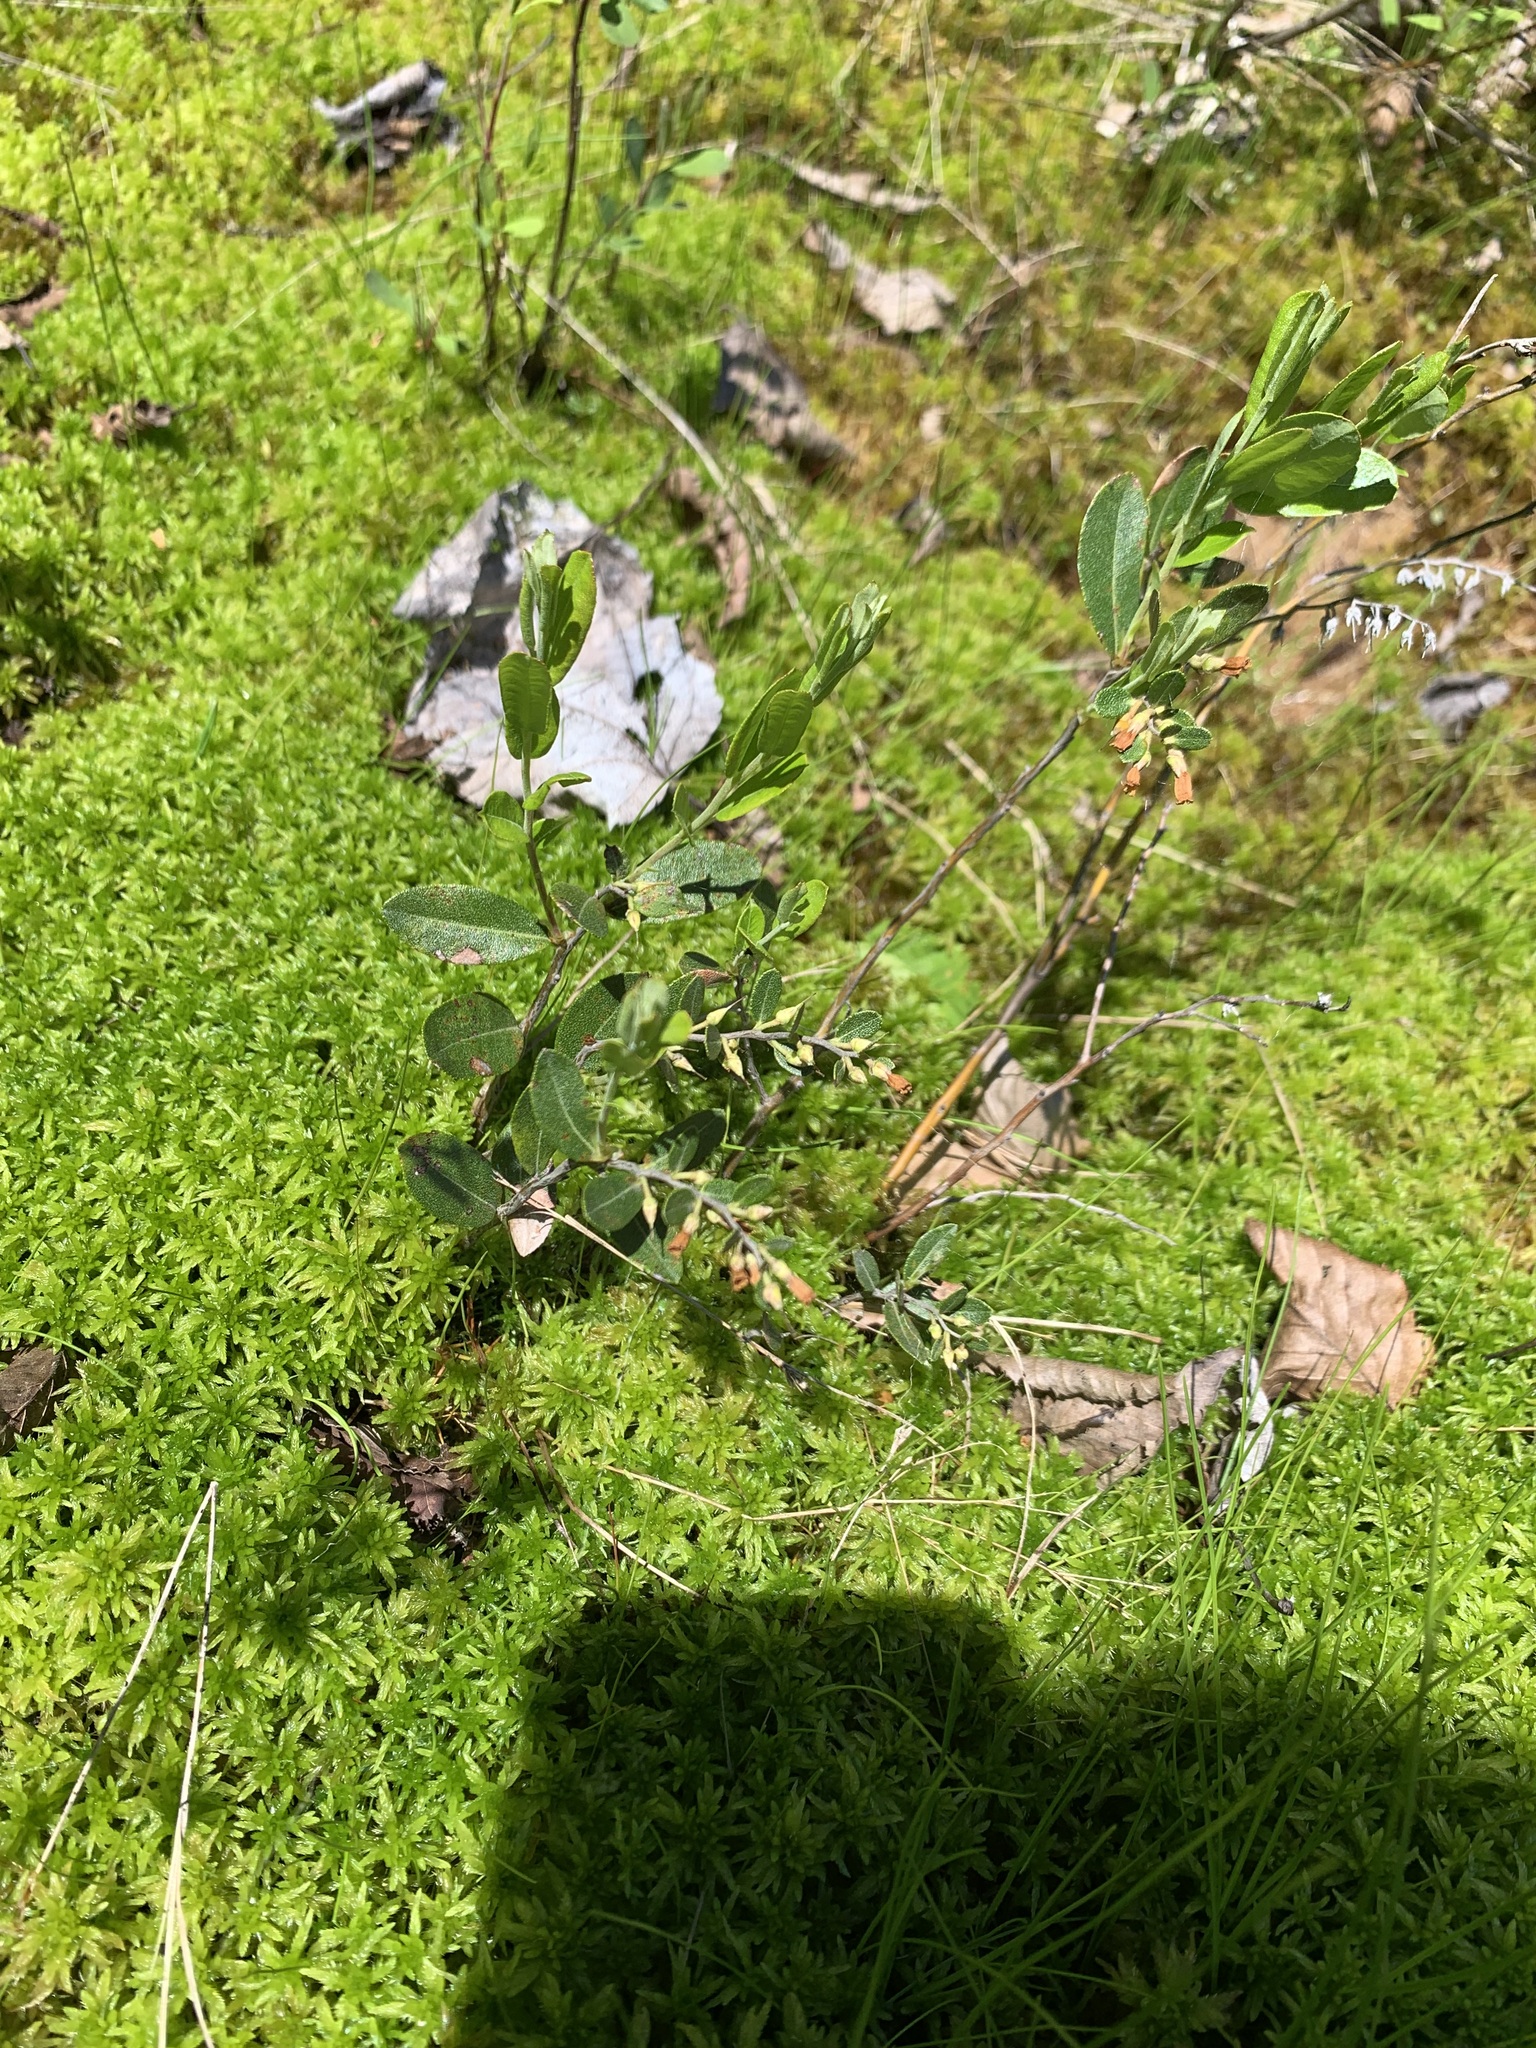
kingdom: Plantae
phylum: Tracheophyta
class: Magnoliopsida
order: Ericales
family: Ericaceae
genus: Chamaedaphne
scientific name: Chamaedaphne calyculata
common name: Leatherleaf
